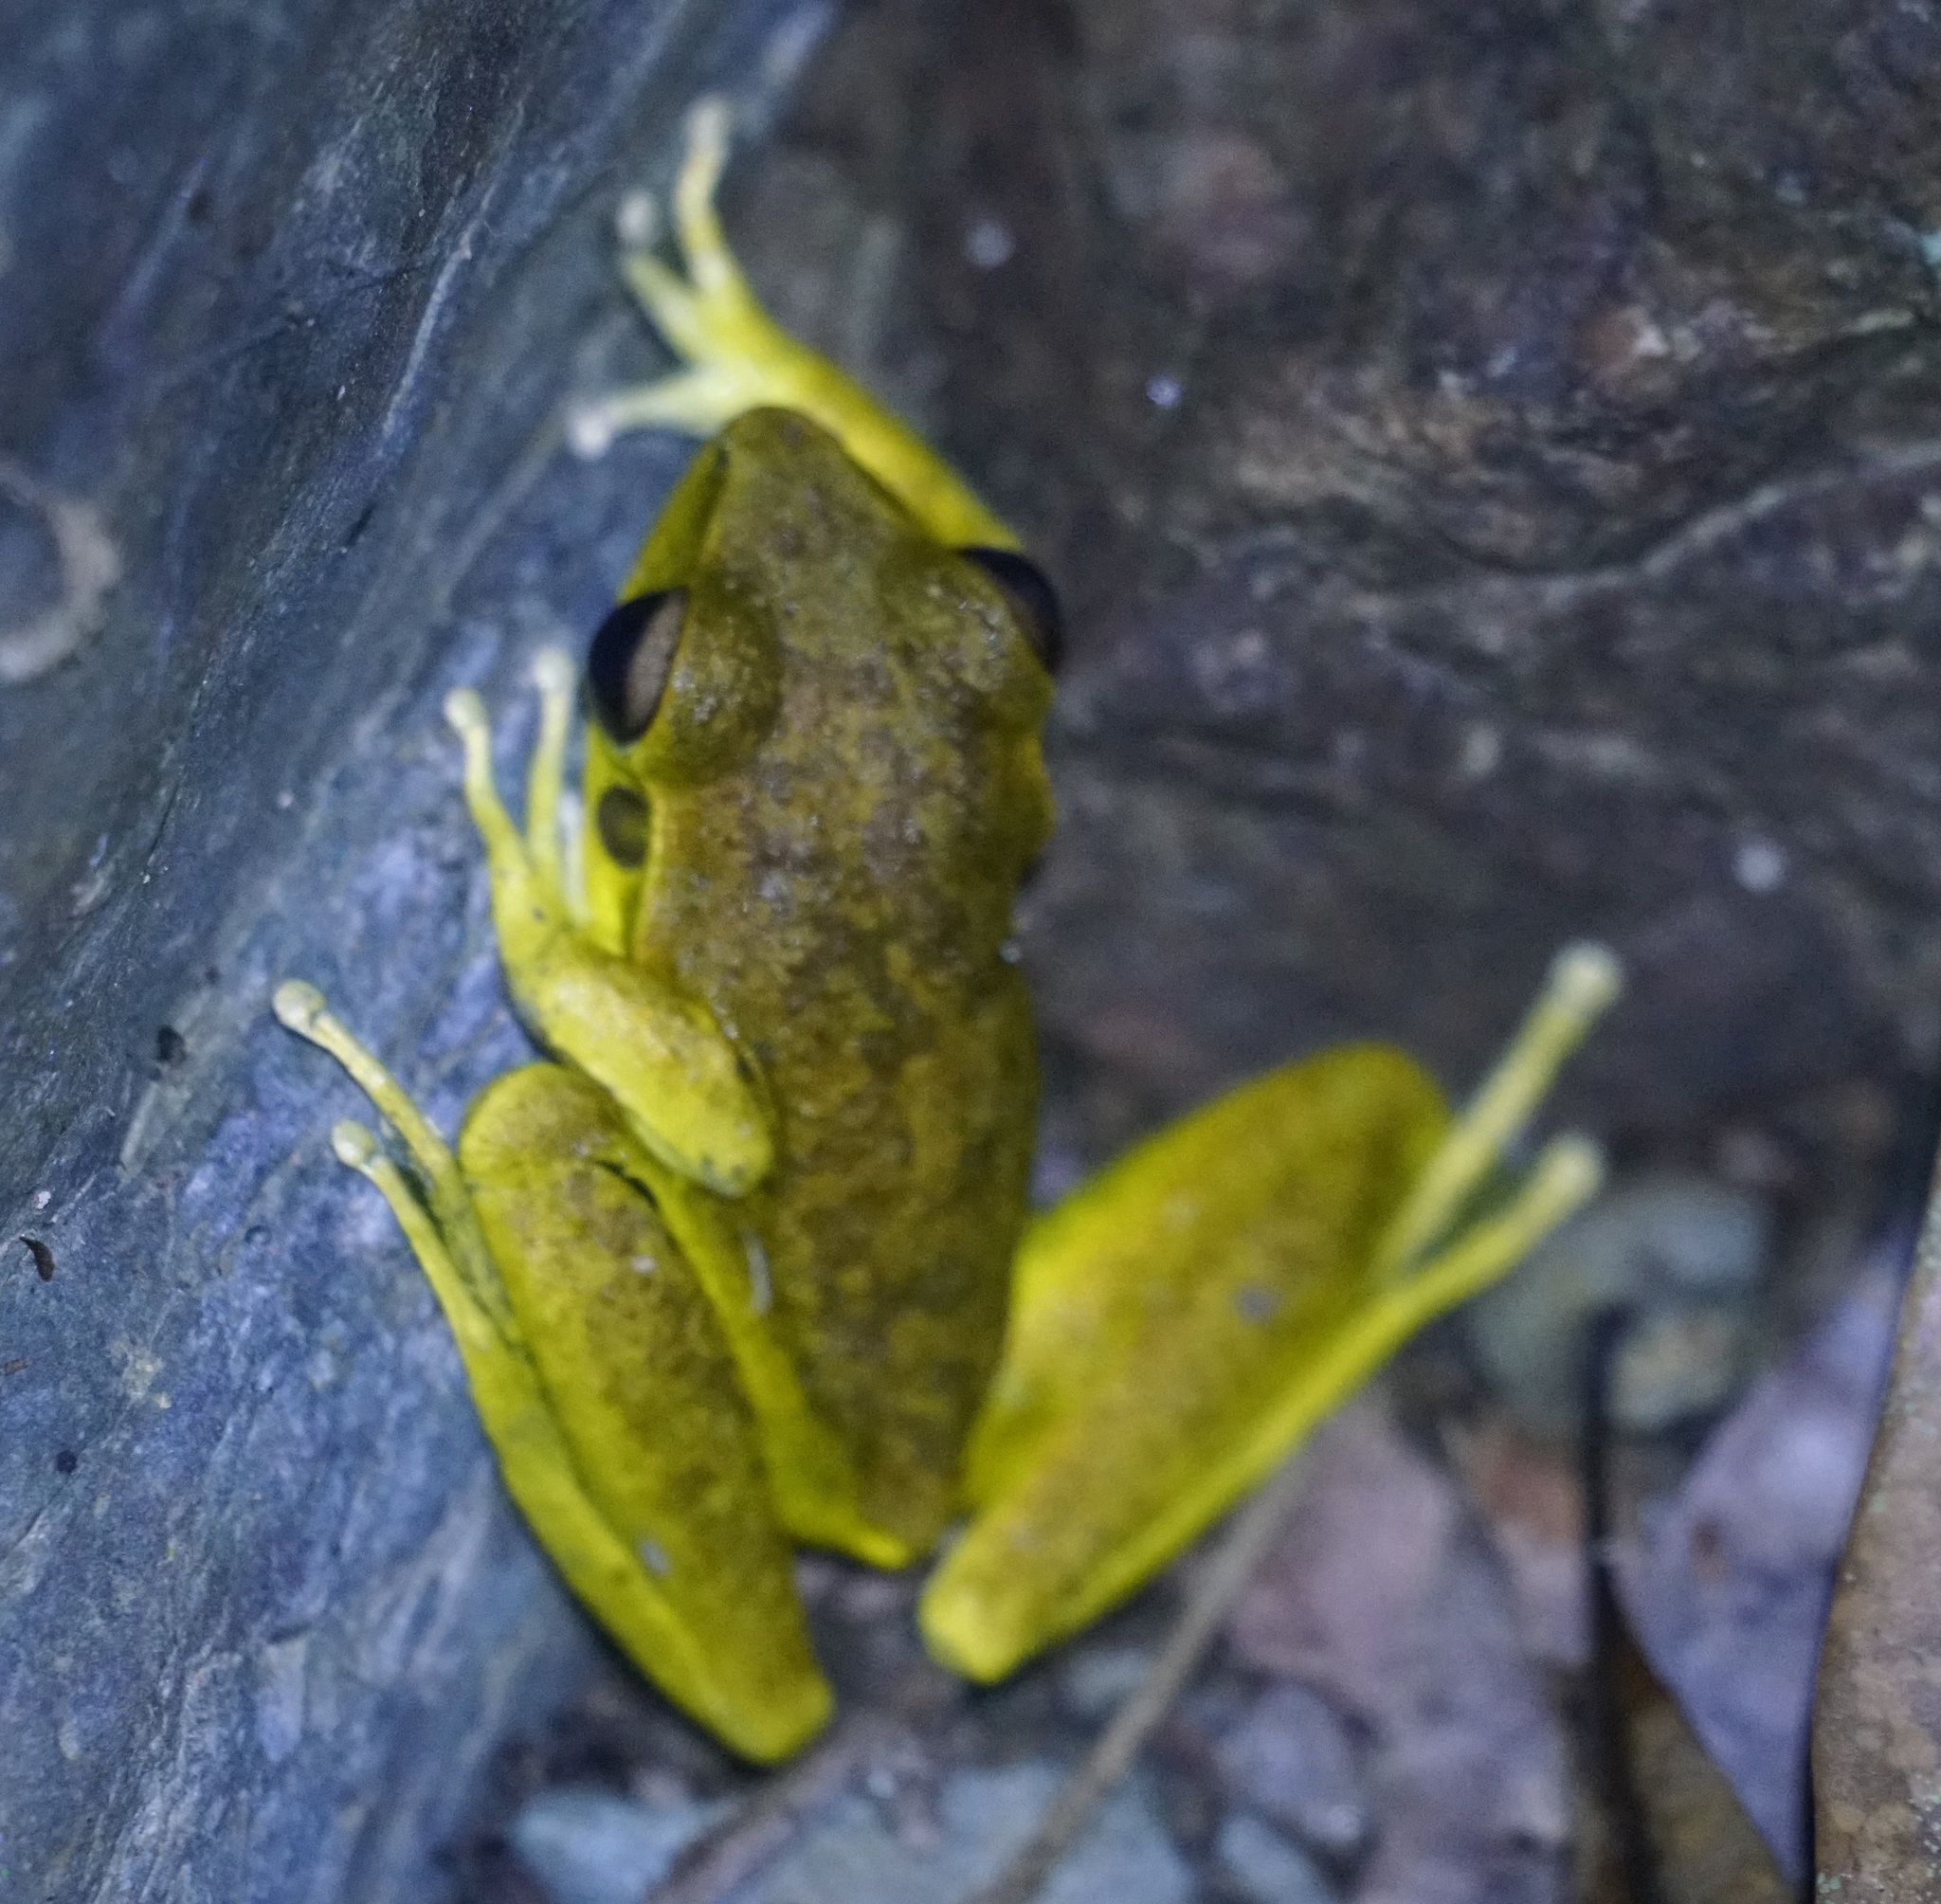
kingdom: Animalia
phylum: Chordata
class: Amphibia
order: Anura
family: Hylidae
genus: Ranoidea
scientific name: Ranoidea
